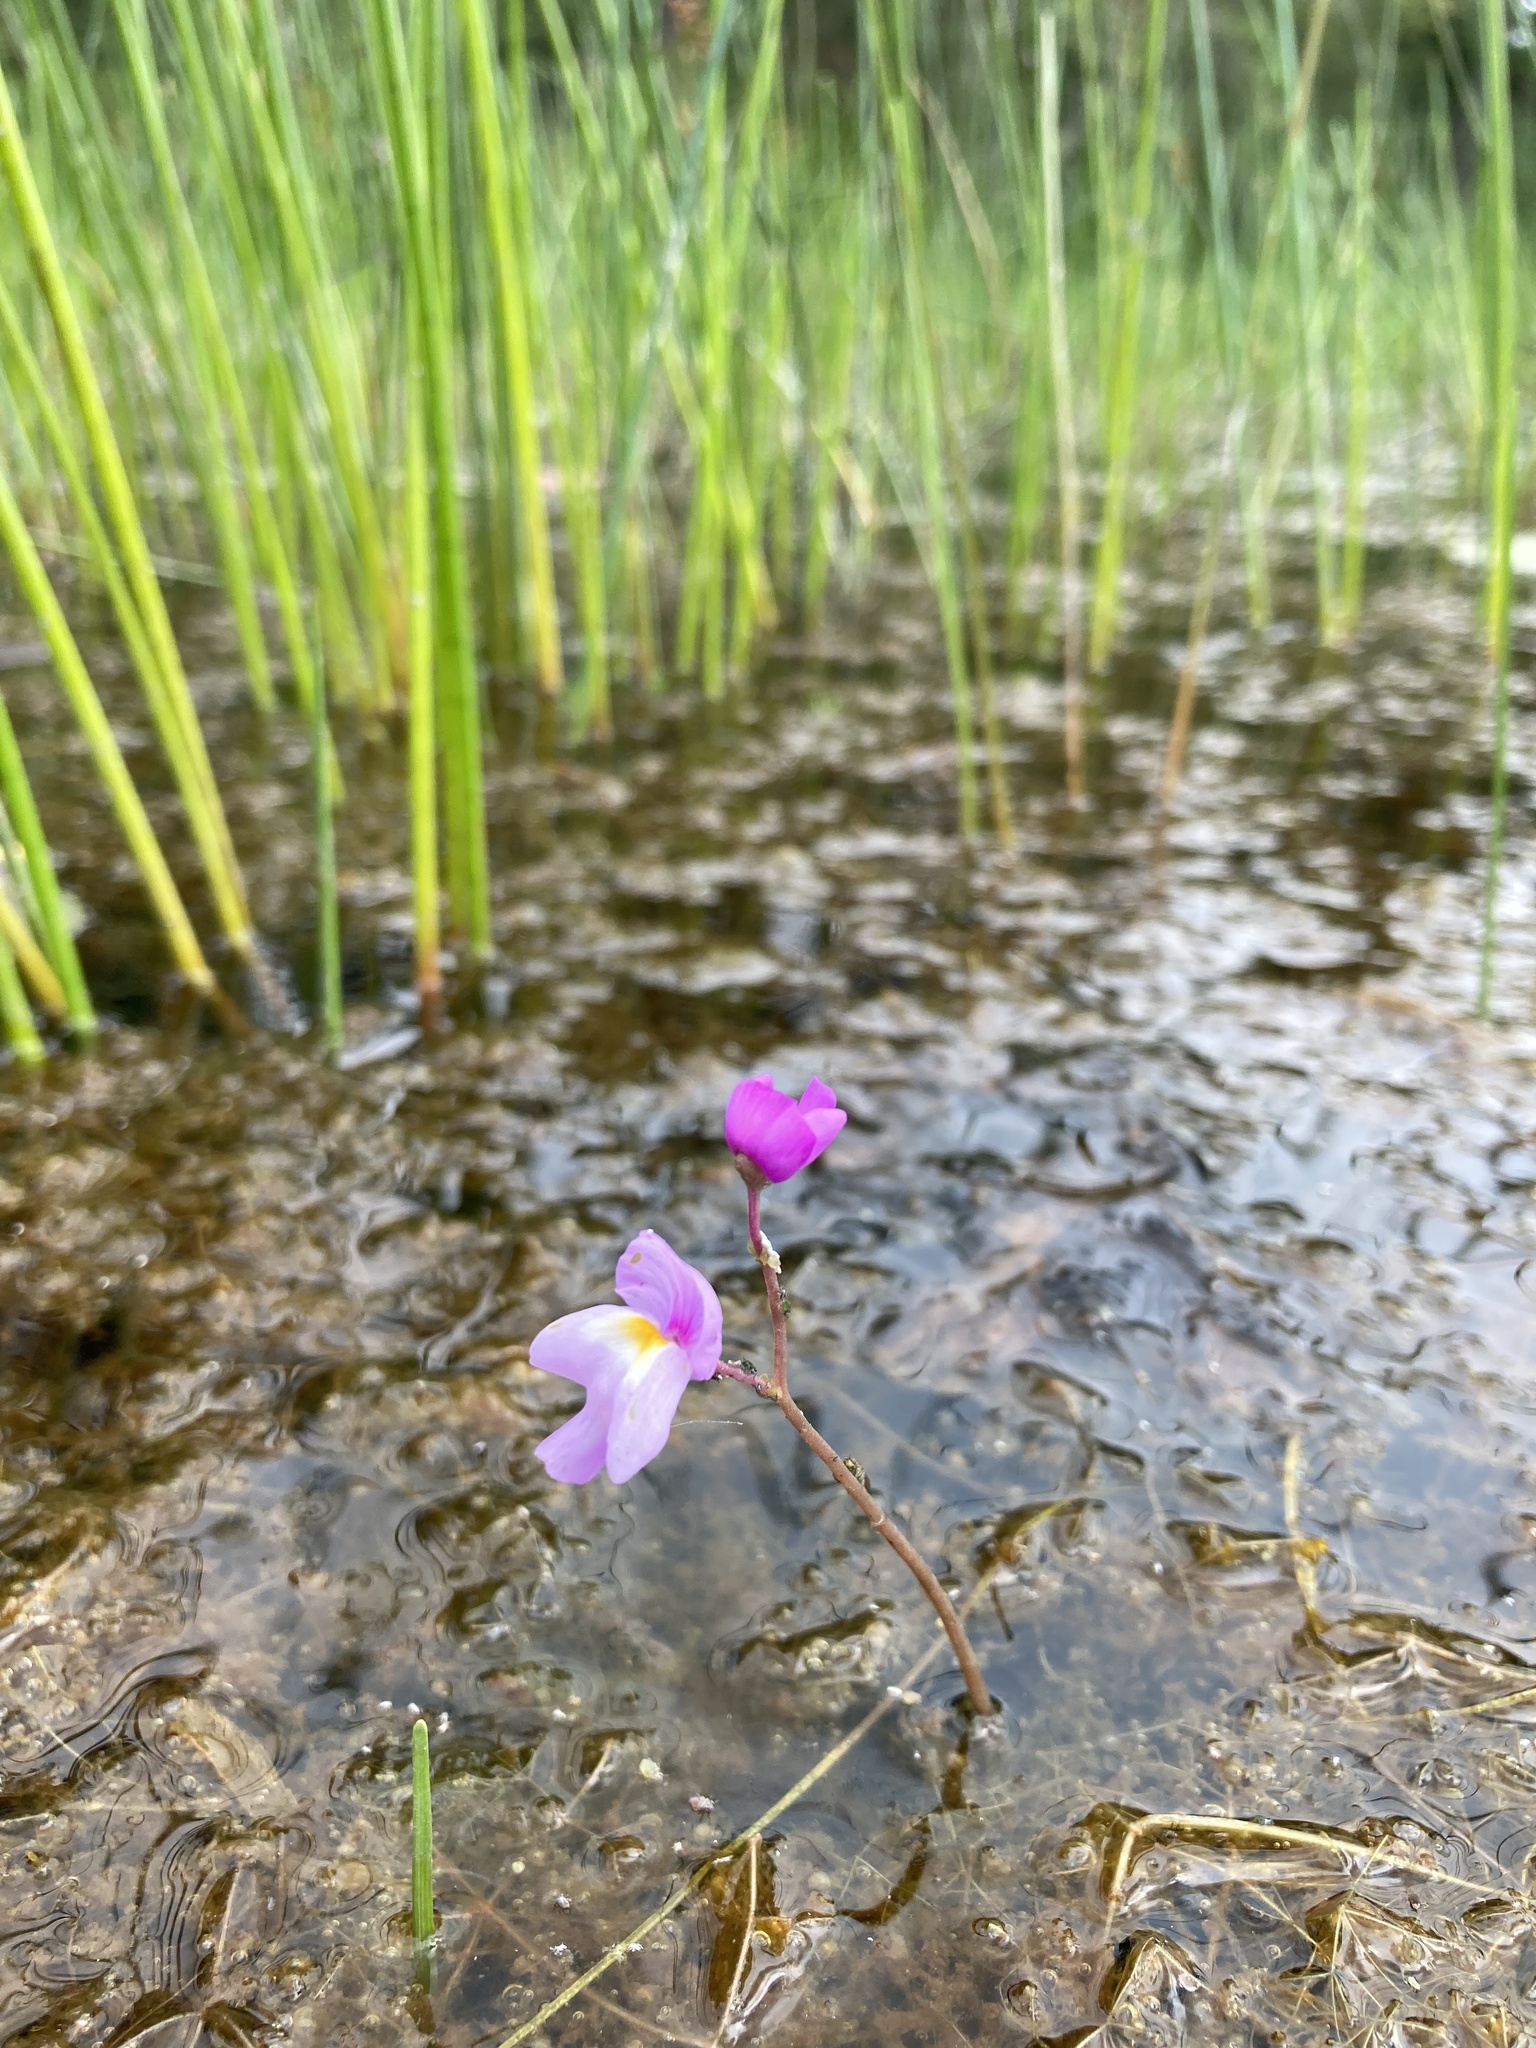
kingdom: Plantae
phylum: Tracheophyta
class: Magnoliopsida
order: Lamiales
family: Lentibulariaceae
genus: Utricularia
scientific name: Utricularia purpurea
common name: Eastern purple bladderwort
